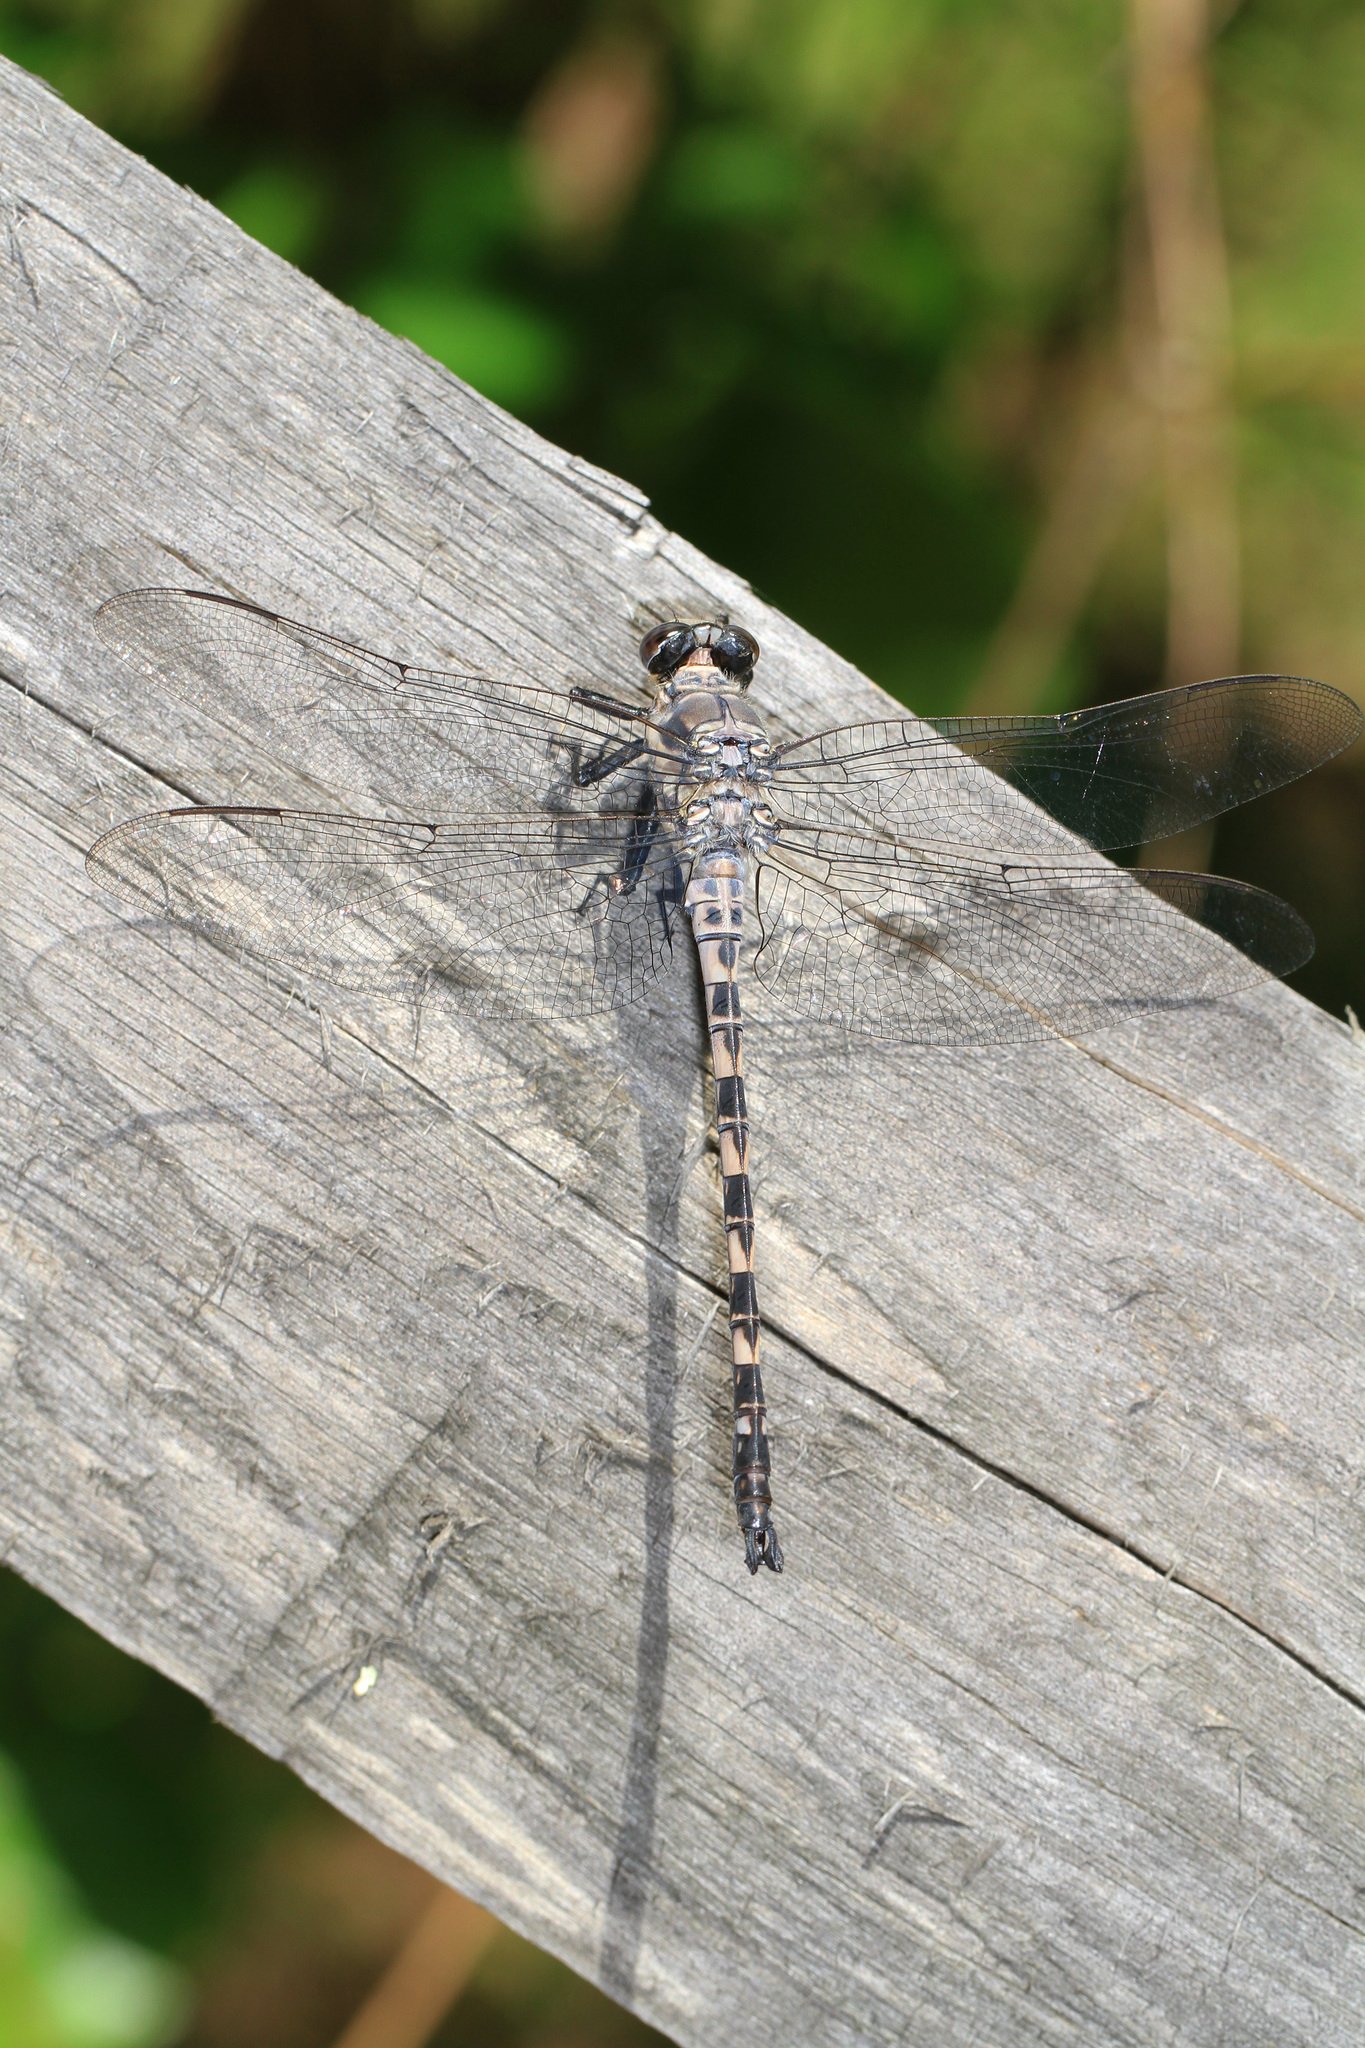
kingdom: Animalia
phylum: Arthropoda
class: Insecta
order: Odonata
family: Petaluridae
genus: Tachopteryx
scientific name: Tachopteryx thoreyi
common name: Gray petaltail
